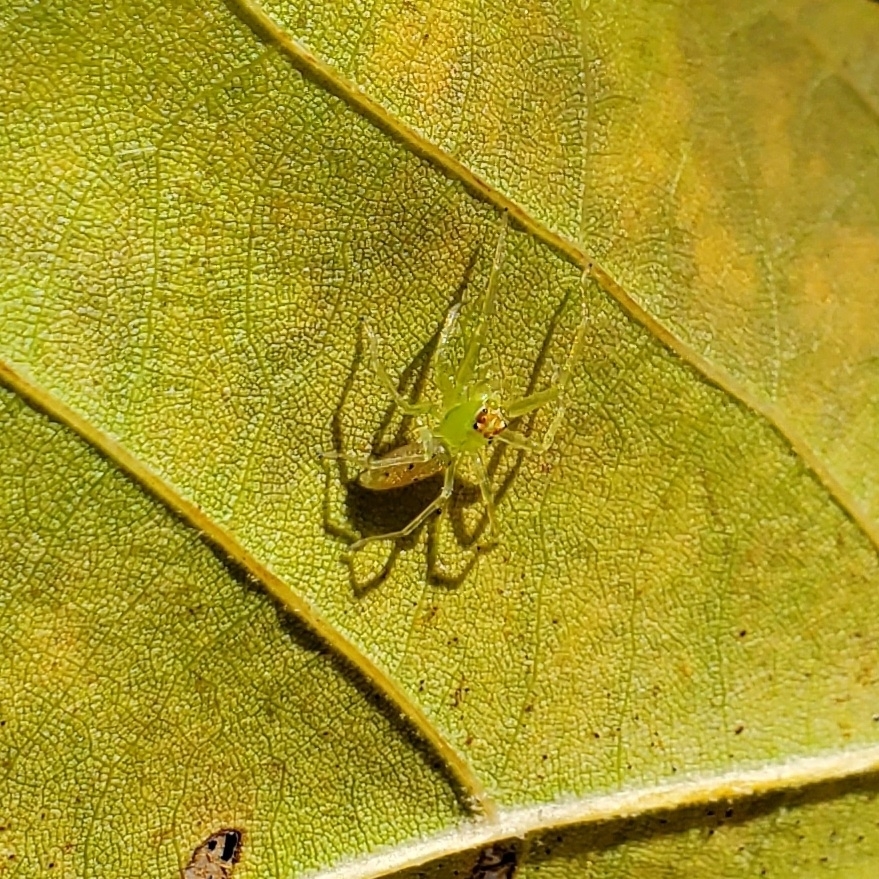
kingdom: Animalia
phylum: Arthropoda
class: Arachnida
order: Araneae
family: Salticidae
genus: Lyssomanes
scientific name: Lyssomanes viridis
